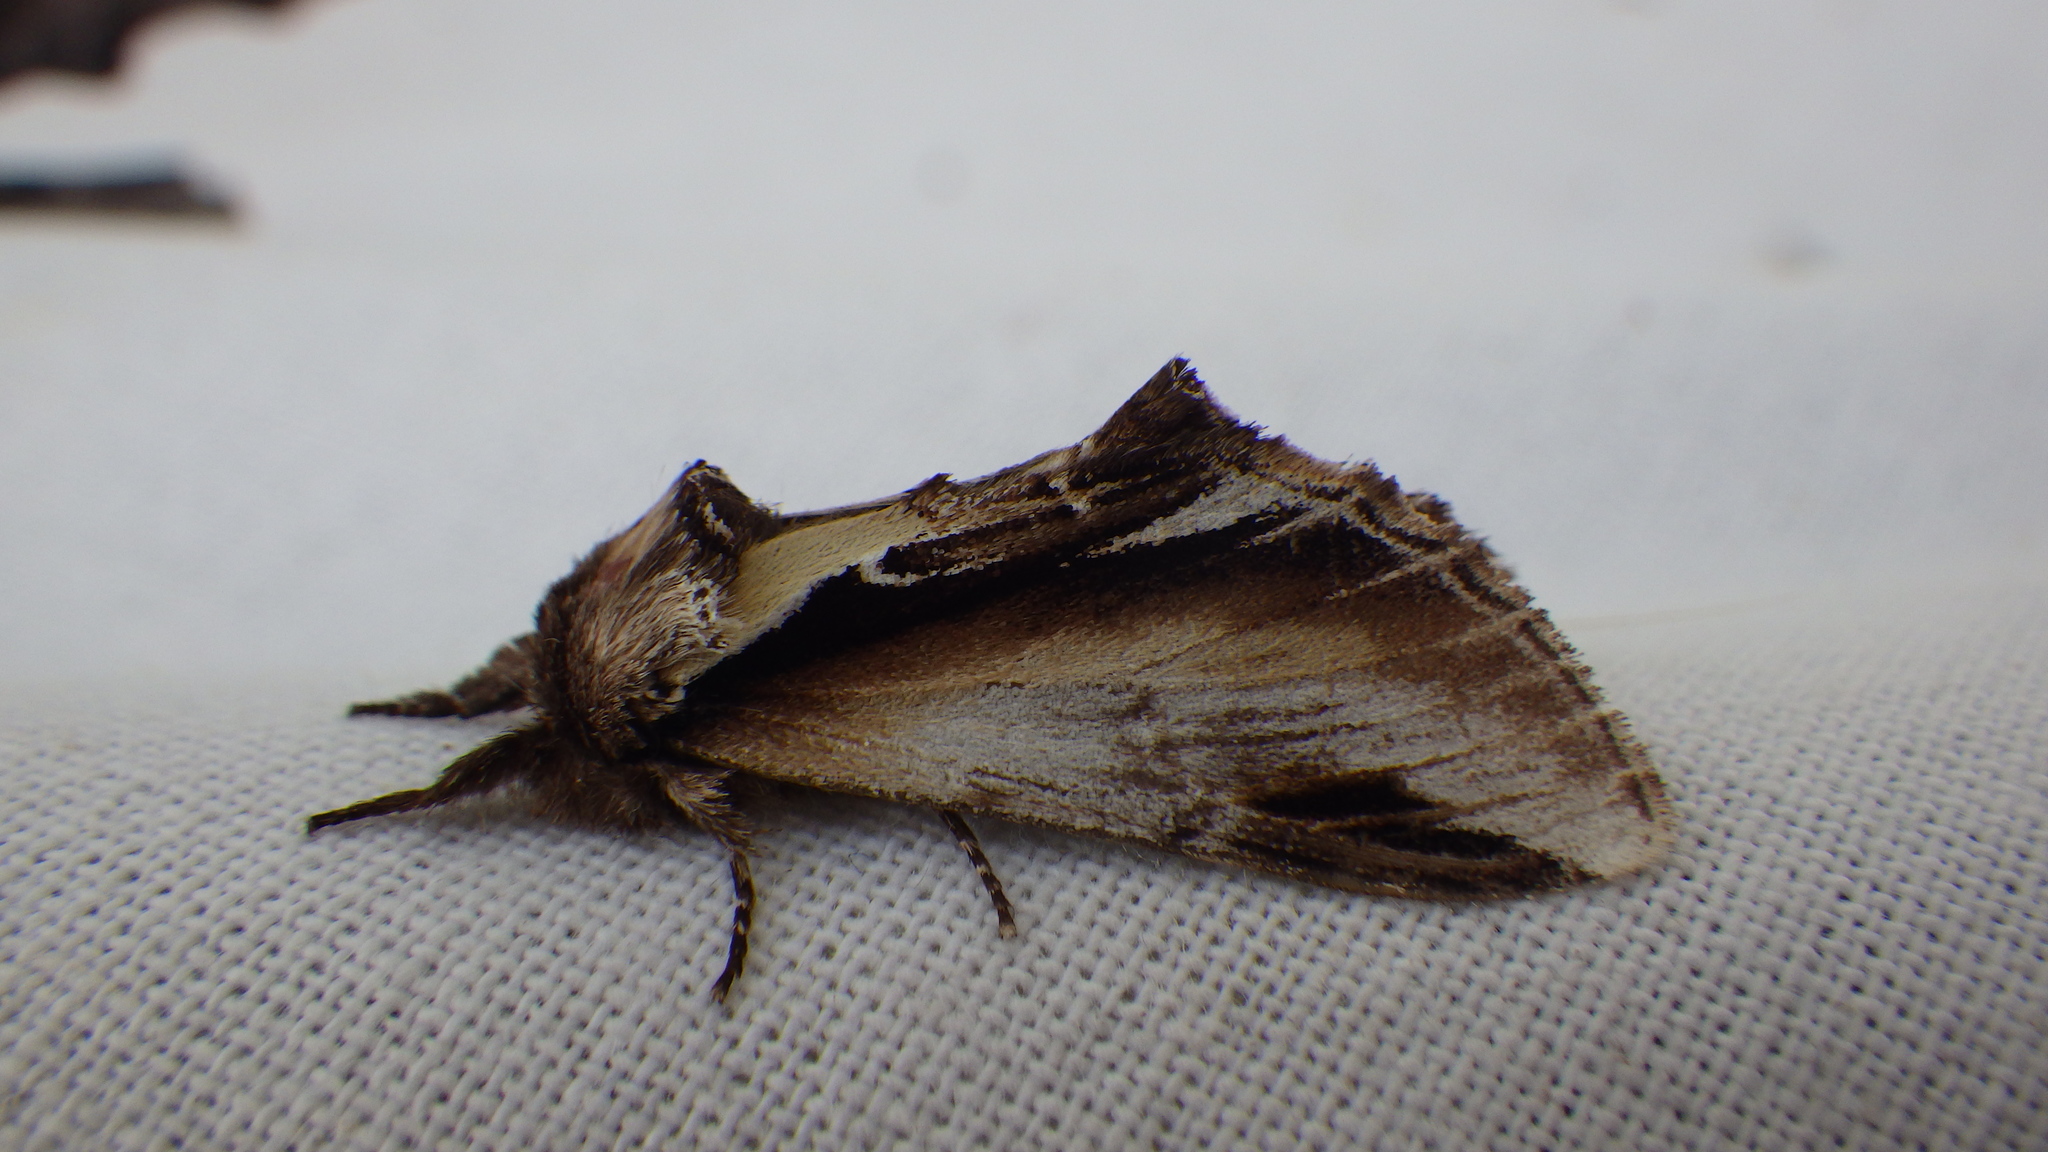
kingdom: Animalia
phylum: Arthropoda
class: Insecta
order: Lepidoptera
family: Notodontidae
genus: Pheosia
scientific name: Pheosia gnoma
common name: Lesser swallow prominent
